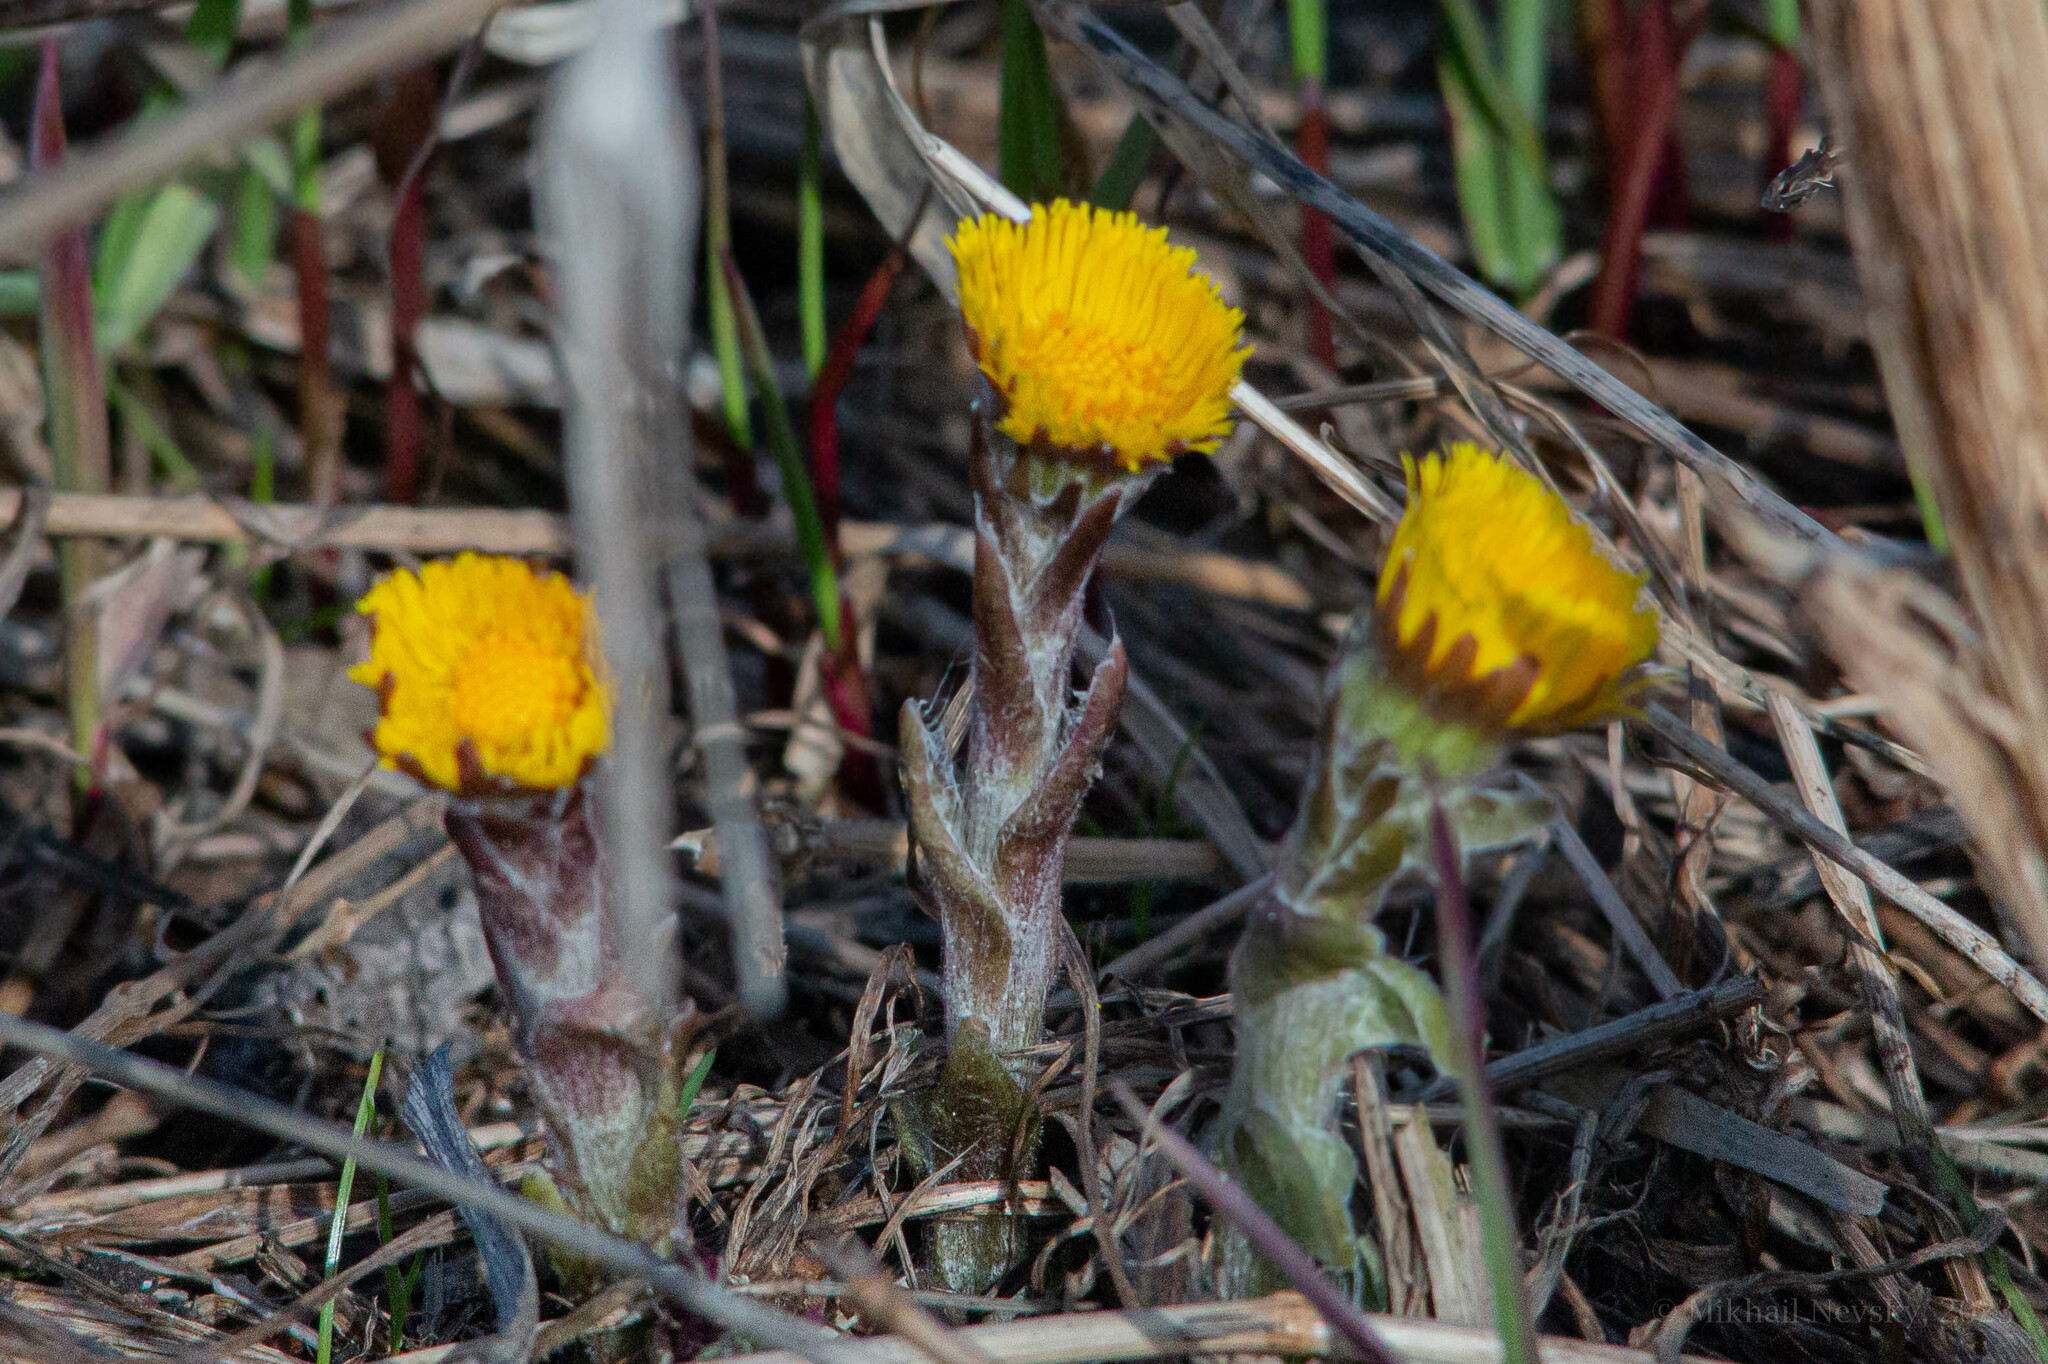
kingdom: Plantae
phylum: Tracheophyta
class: Magnoliopsida
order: Asterales
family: Asteraceae
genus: Tussilago
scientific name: Tussilago farfara
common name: Coltsfoot
